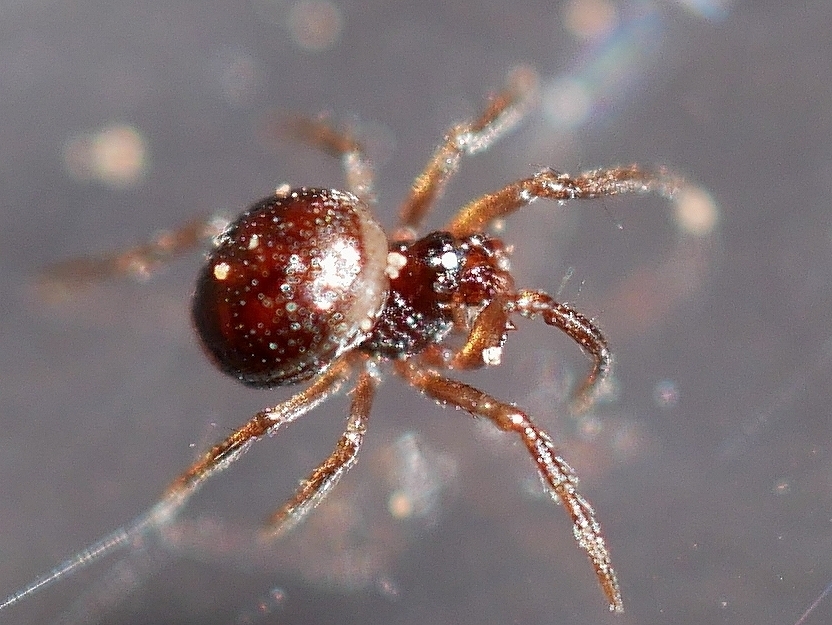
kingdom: Animalia
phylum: Arthropoda
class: Arachnida
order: Araneae
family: Anapidae
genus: Gertschanapis
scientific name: Gertschanapis shantzi
